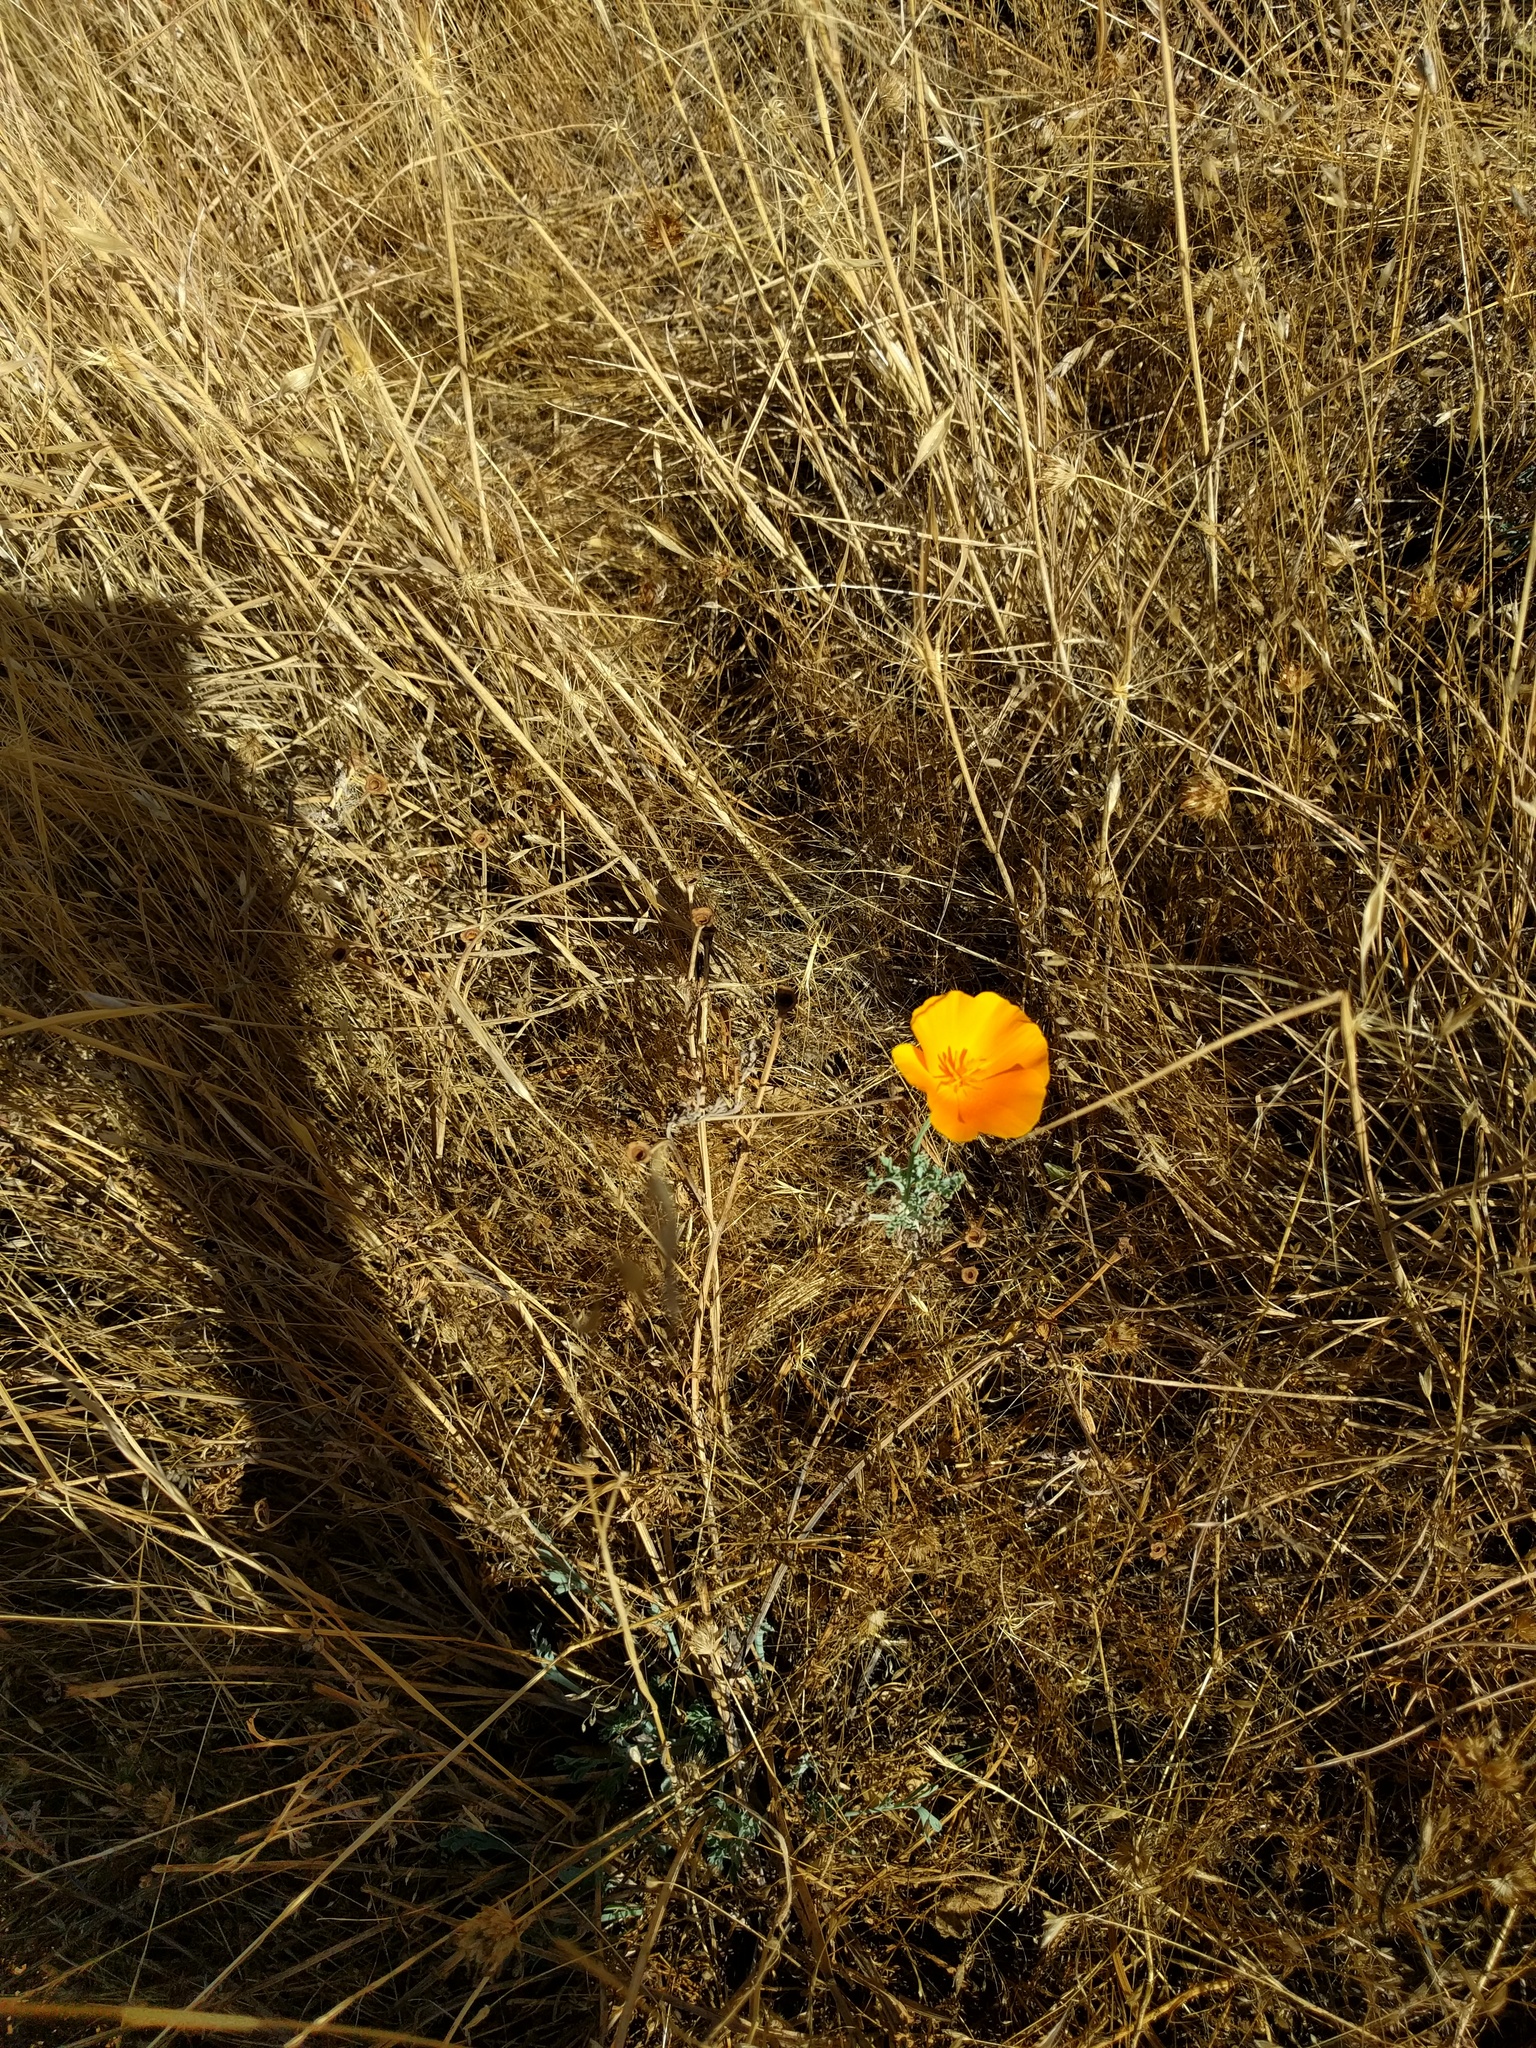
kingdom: Plantae
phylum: Tracheophyta
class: Magnoliopsida
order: Ranunculales
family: Papaveraceae
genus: Eschscholzia
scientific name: Eschscholzia californica
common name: California poppy
